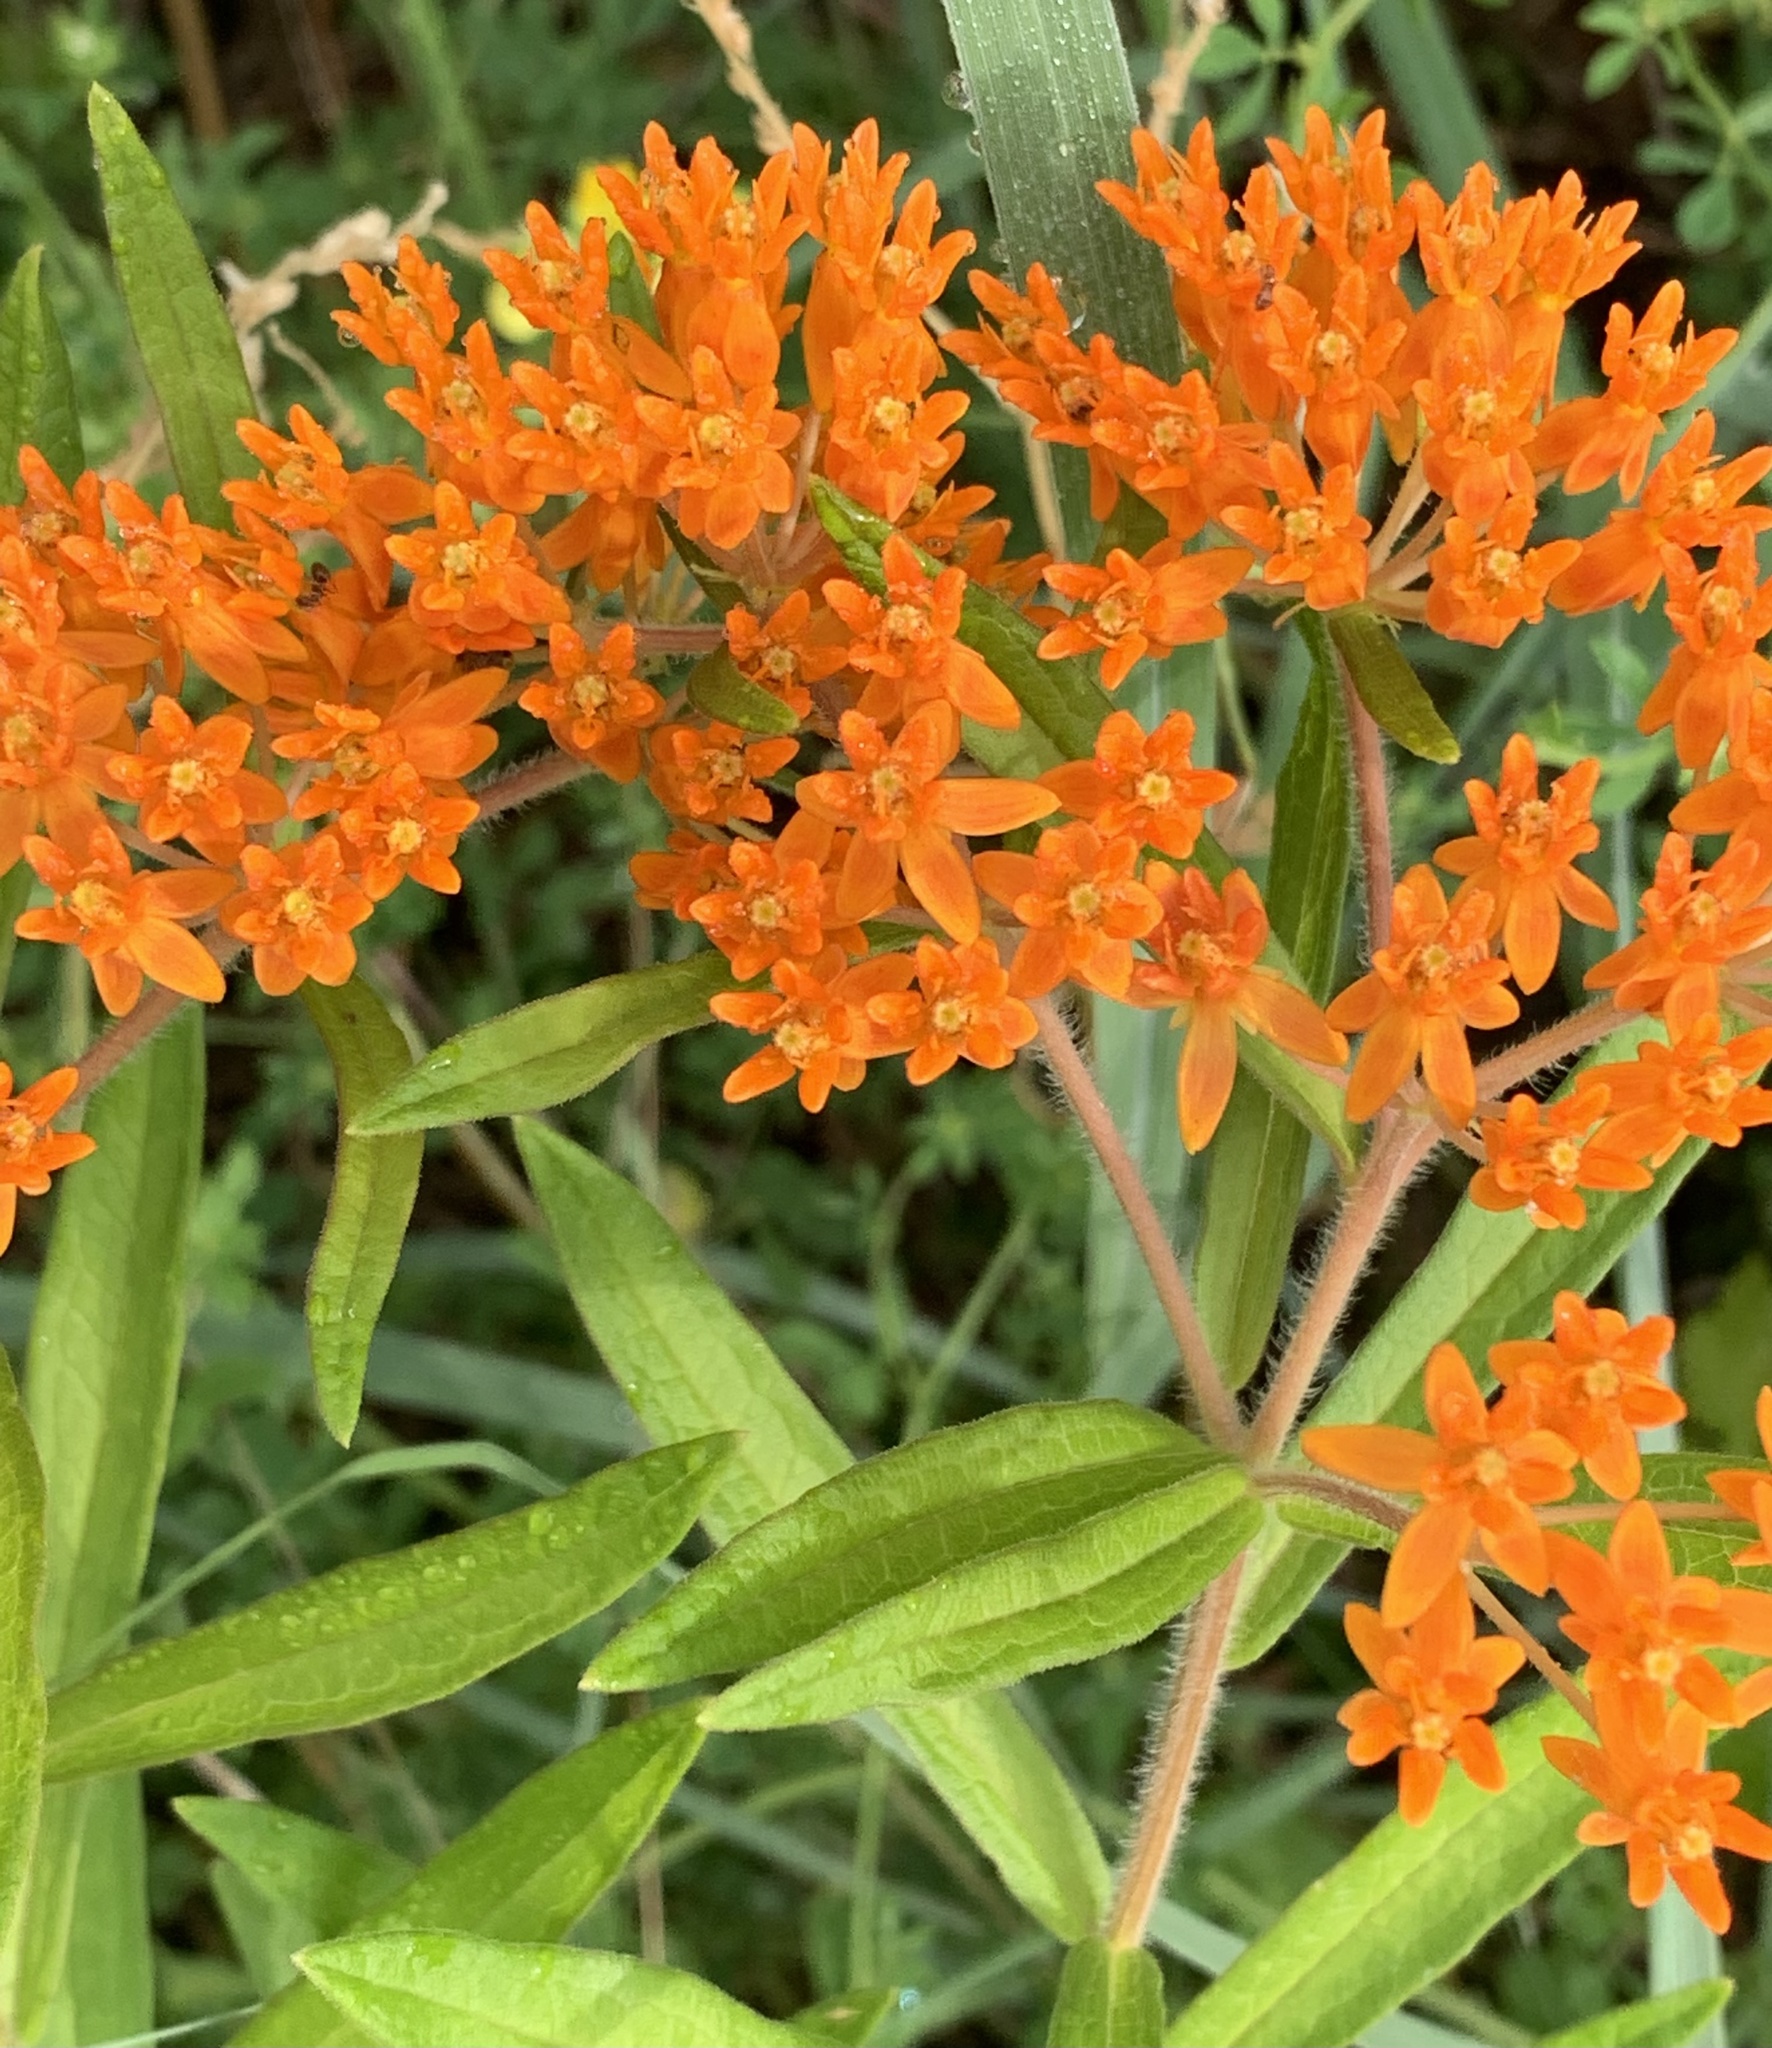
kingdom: Plantae
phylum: Tracheophyta
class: Magnoliopsida
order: Gentianales
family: Apocynaceae
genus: Asclepias
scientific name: Asclepias tuberosa
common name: Butterfly milkweed
